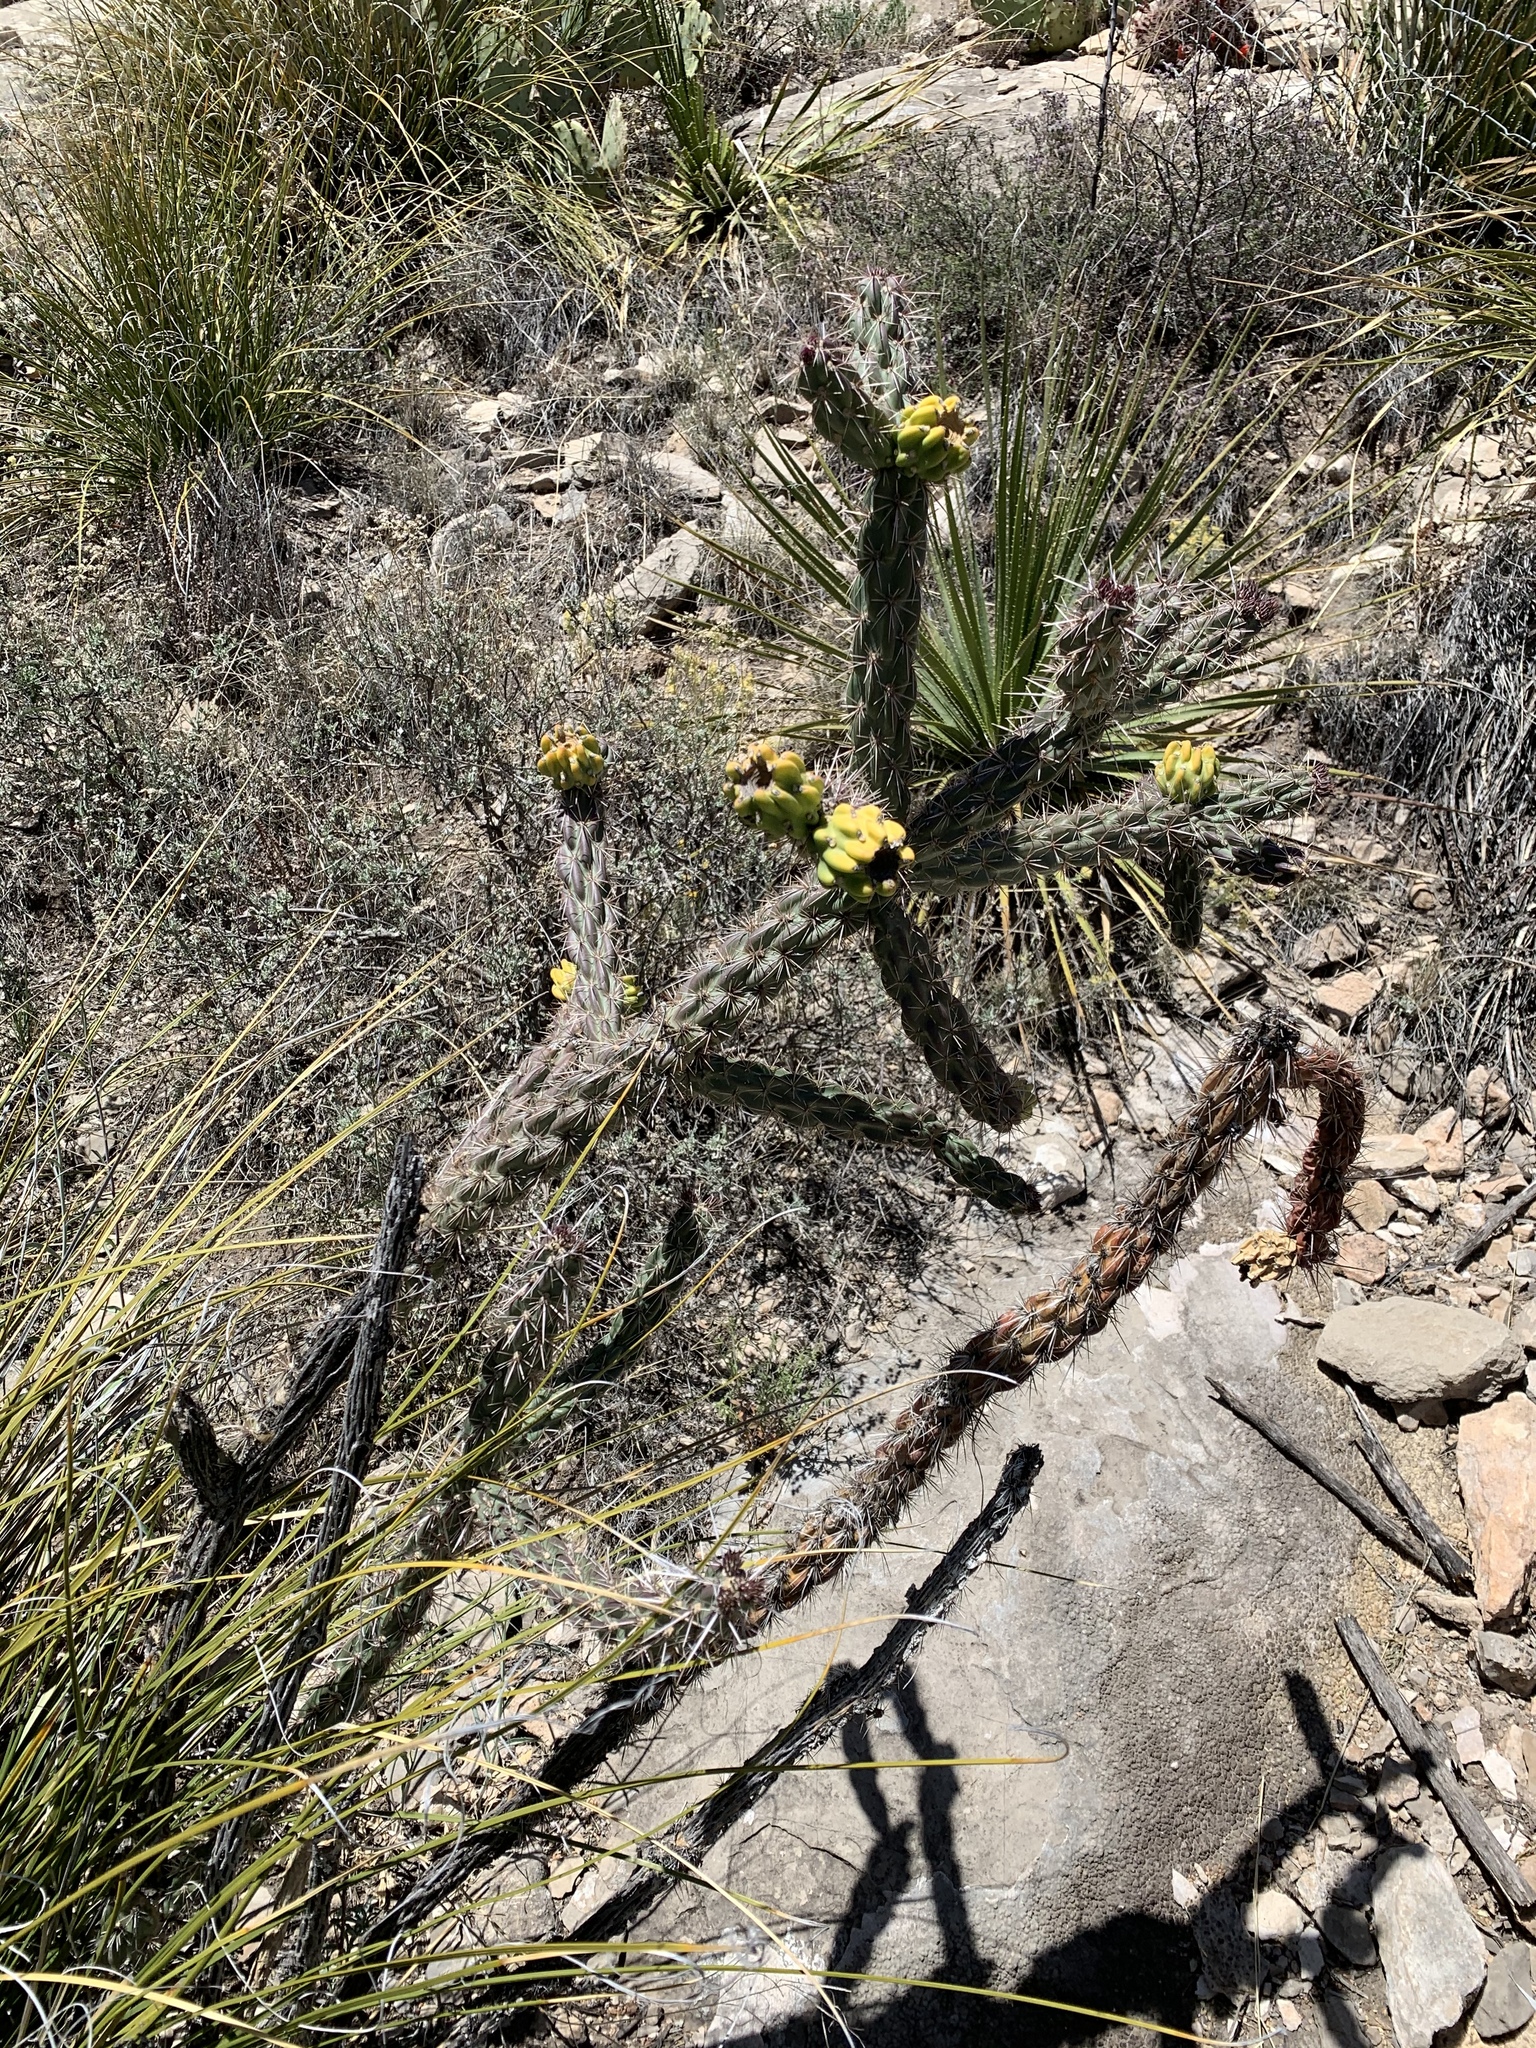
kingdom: Plantae
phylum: Tracheophyta
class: Magnoliopsida
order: Caryophyllales
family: Cactaceae
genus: Cylindropuntia
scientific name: Cylindropuntia imbricata
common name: Candelabrum cactus
